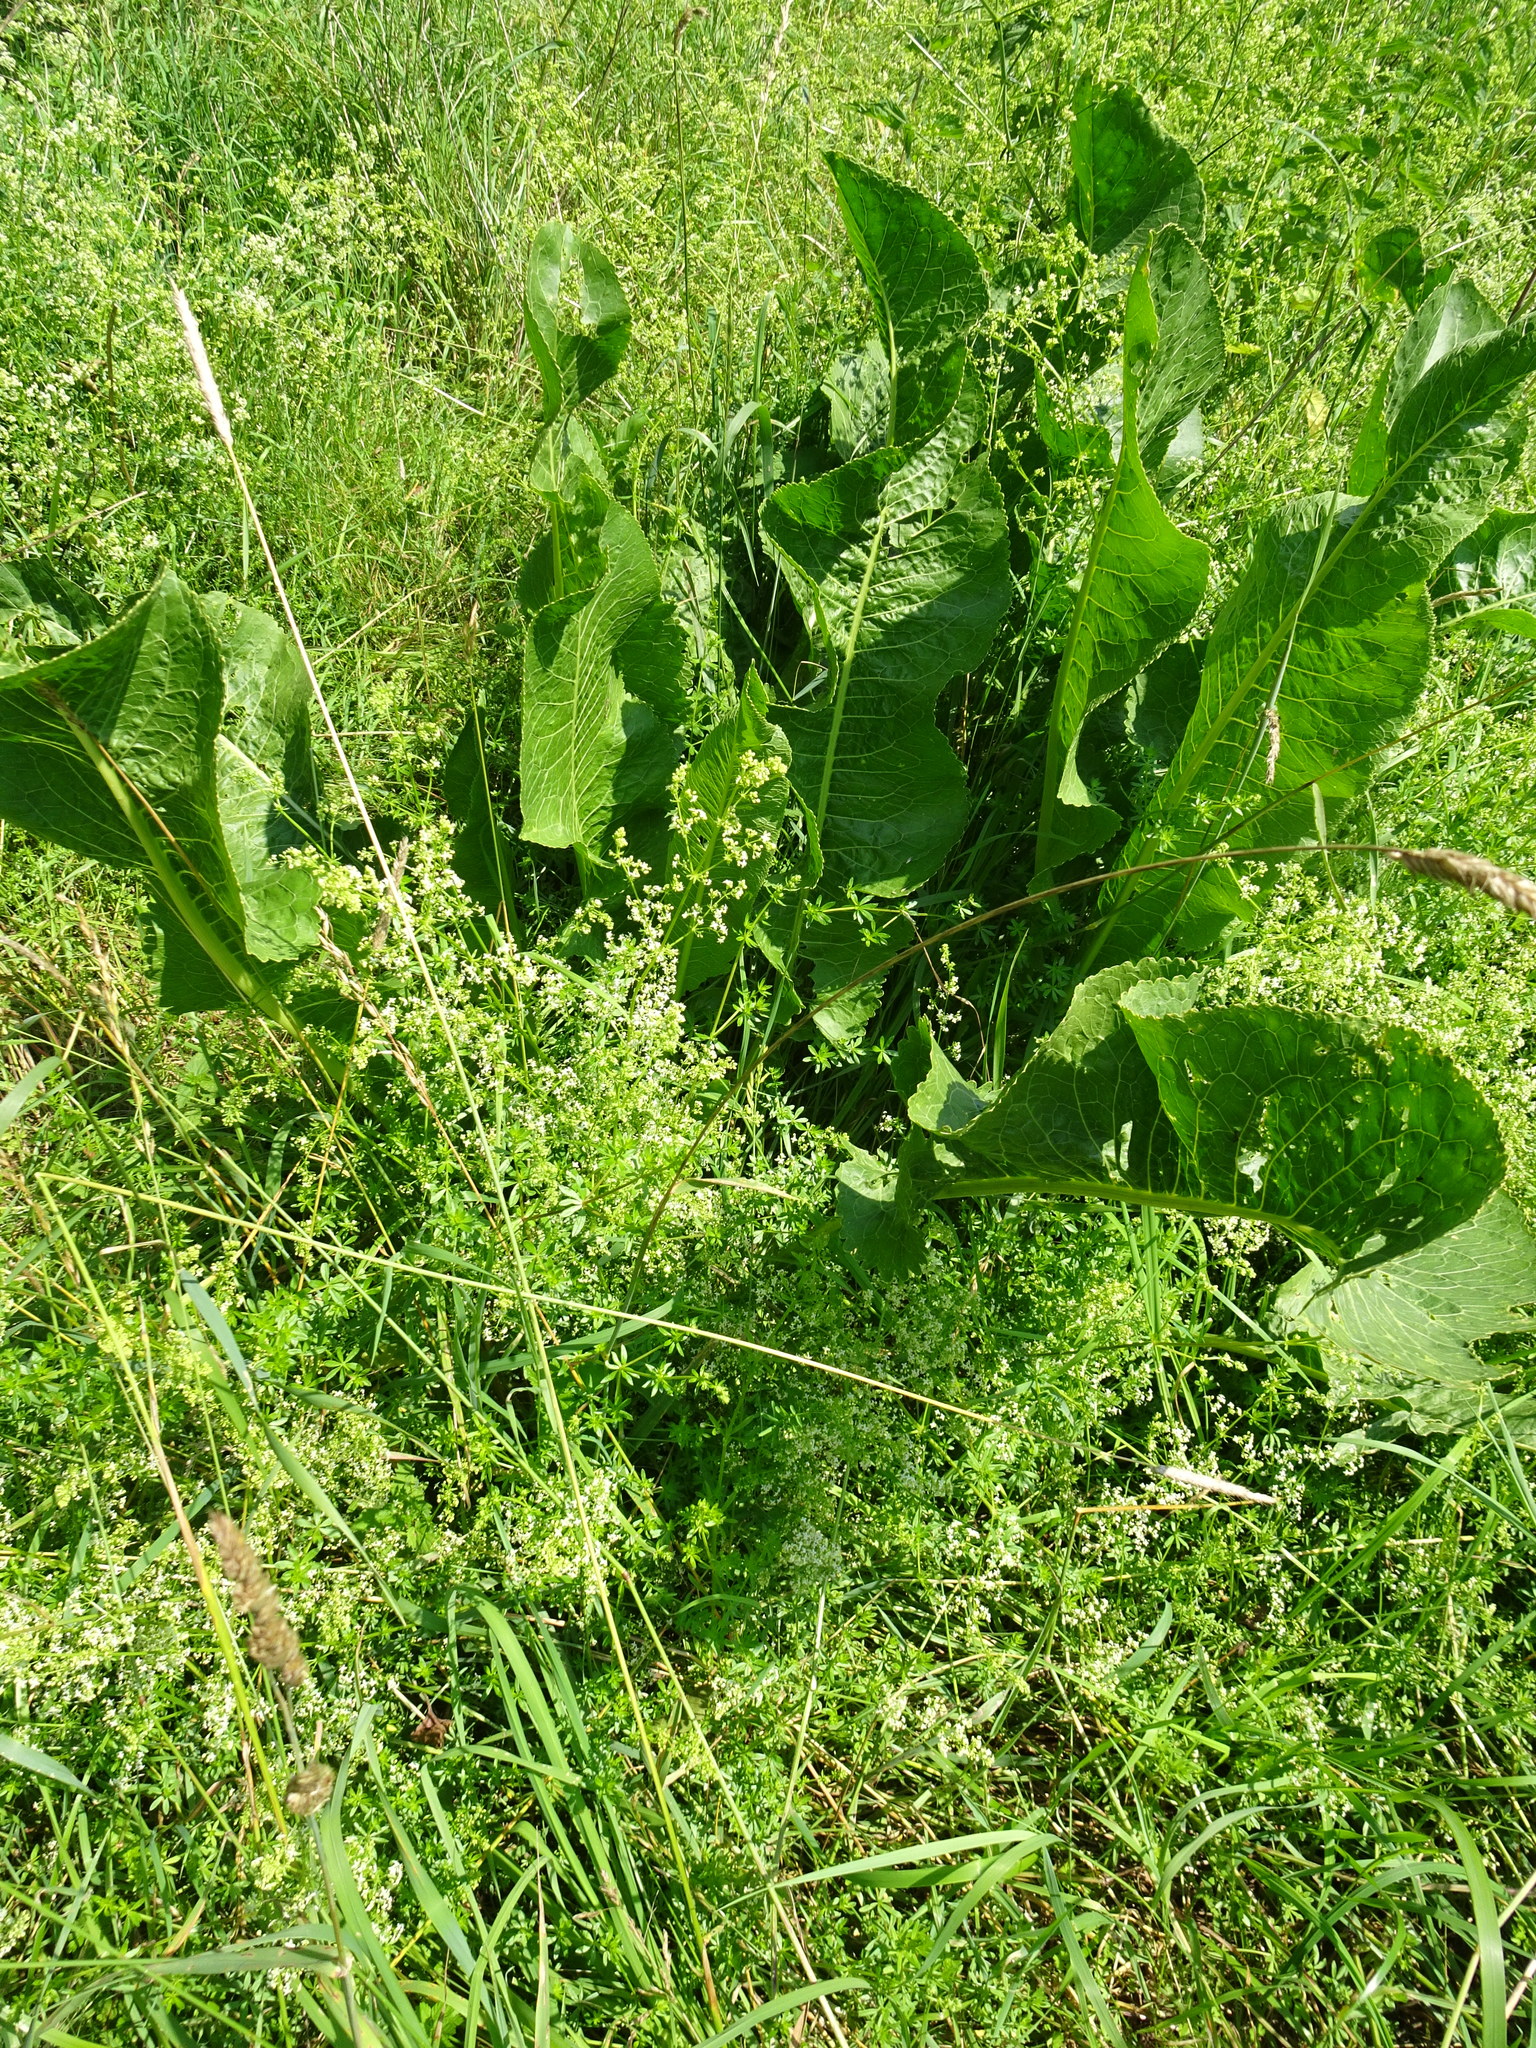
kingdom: Plantae
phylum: Tracheophyta
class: Magnoliopsida
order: Brassicales
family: Brassicaceae
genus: Armoracia
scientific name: Armoracia rusticana
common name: Horseradish
